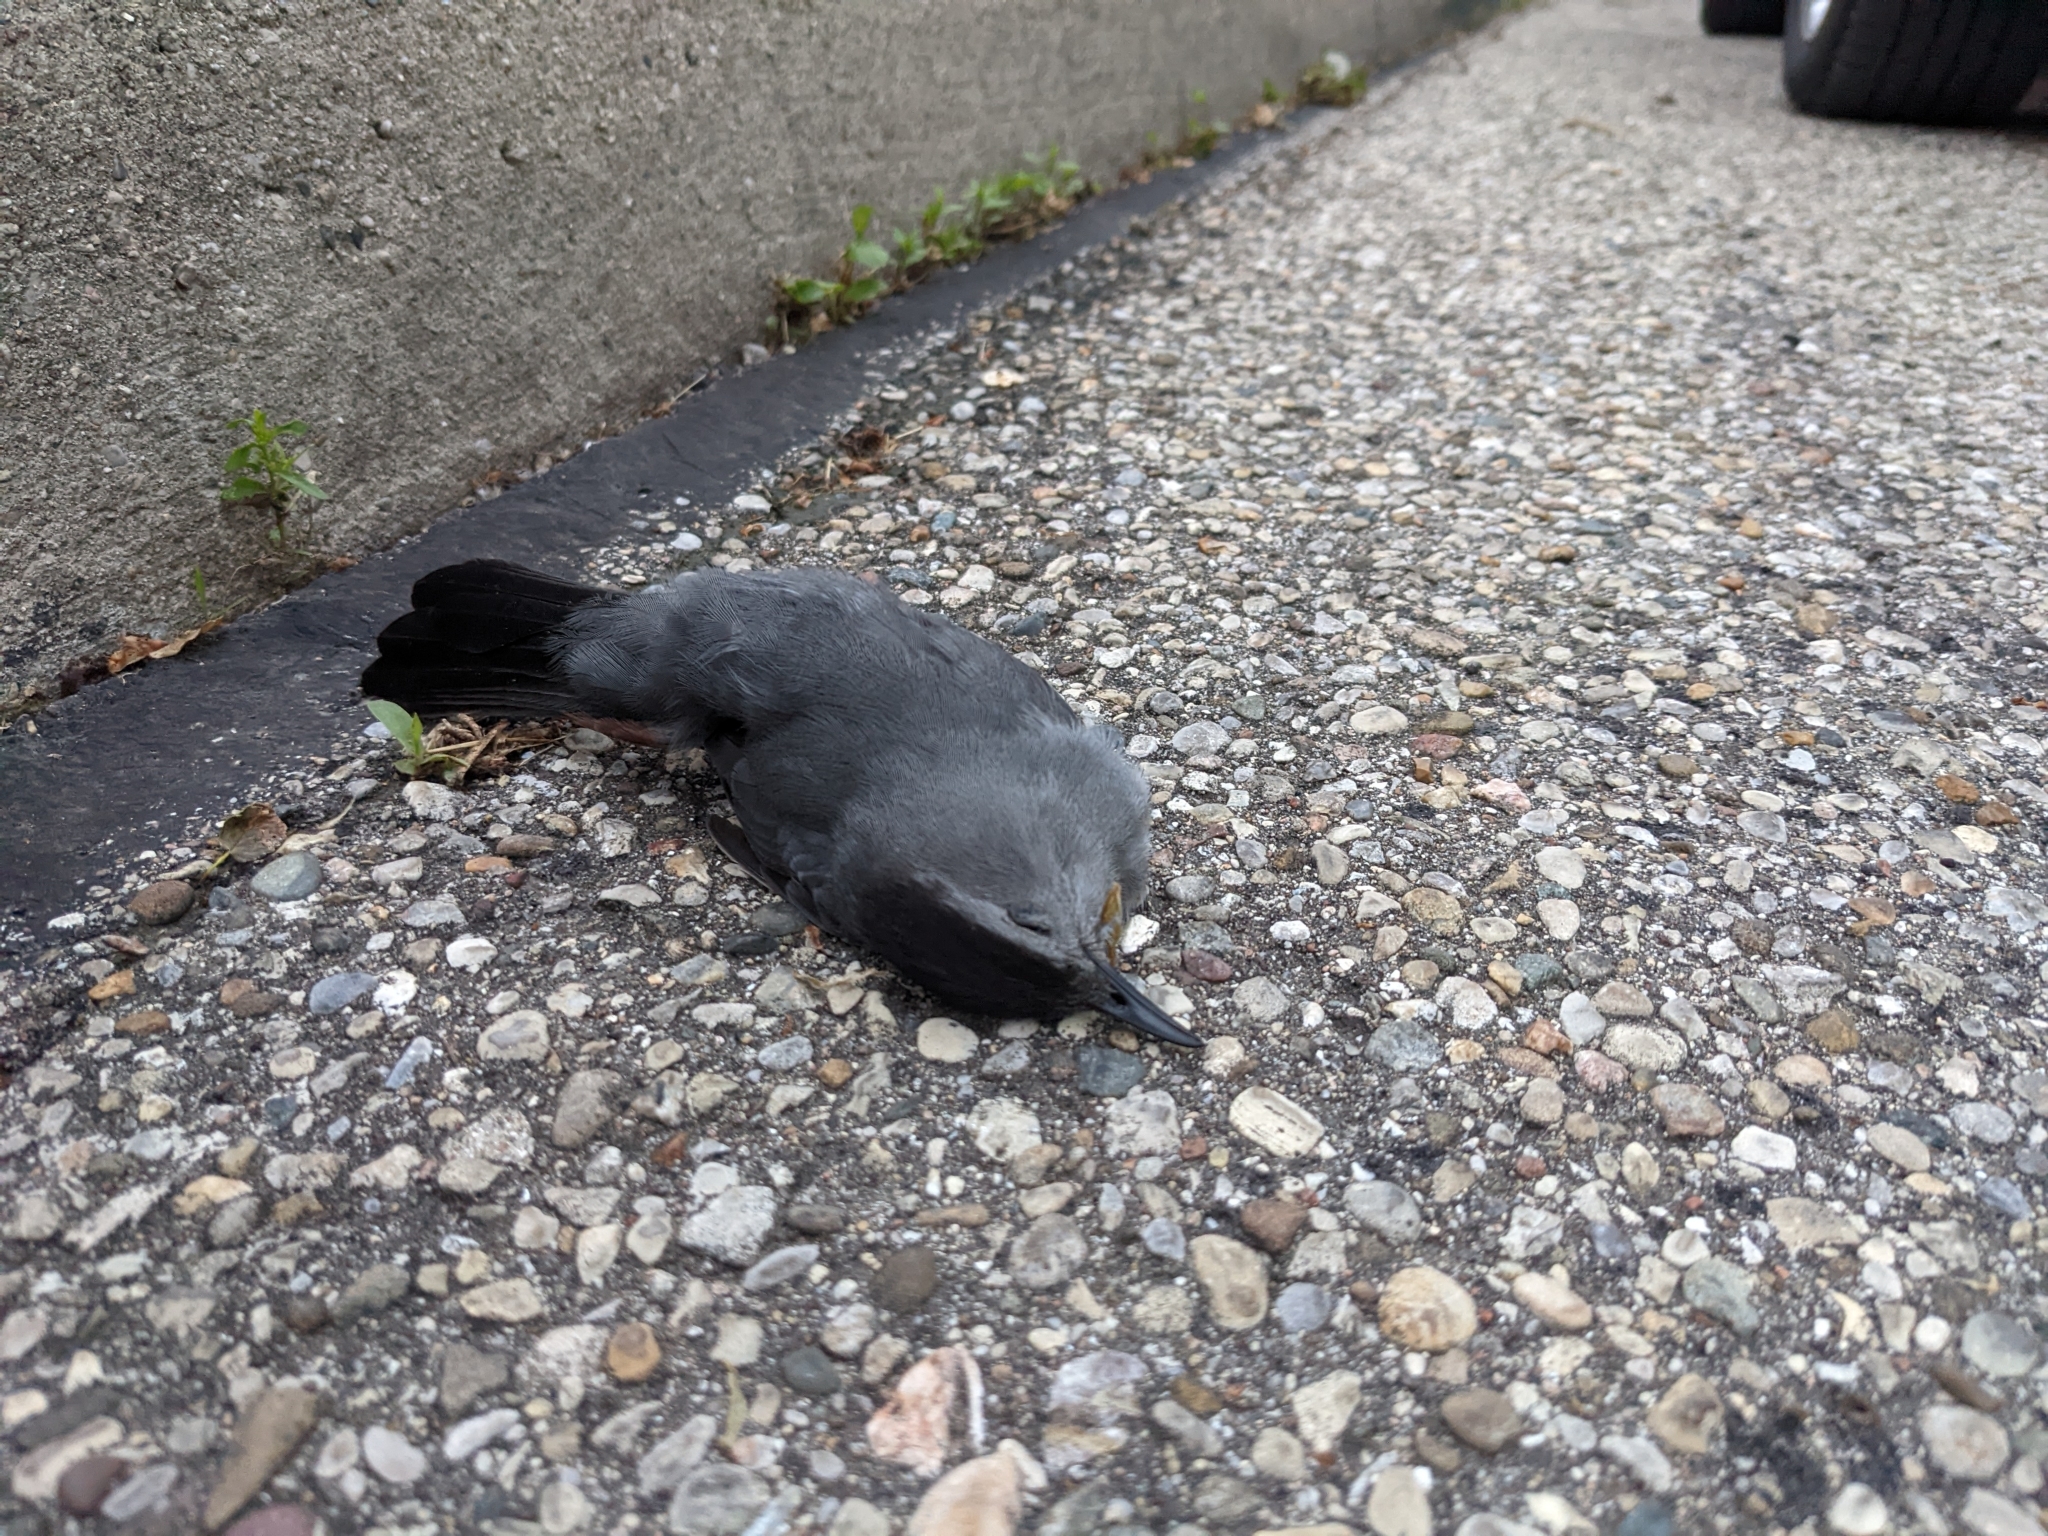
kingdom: Animalia
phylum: Chordata
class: Aves
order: Passeriformes
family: Mimidae
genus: Dumetella
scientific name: Dumetella carolinensis
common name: Gray catbird
